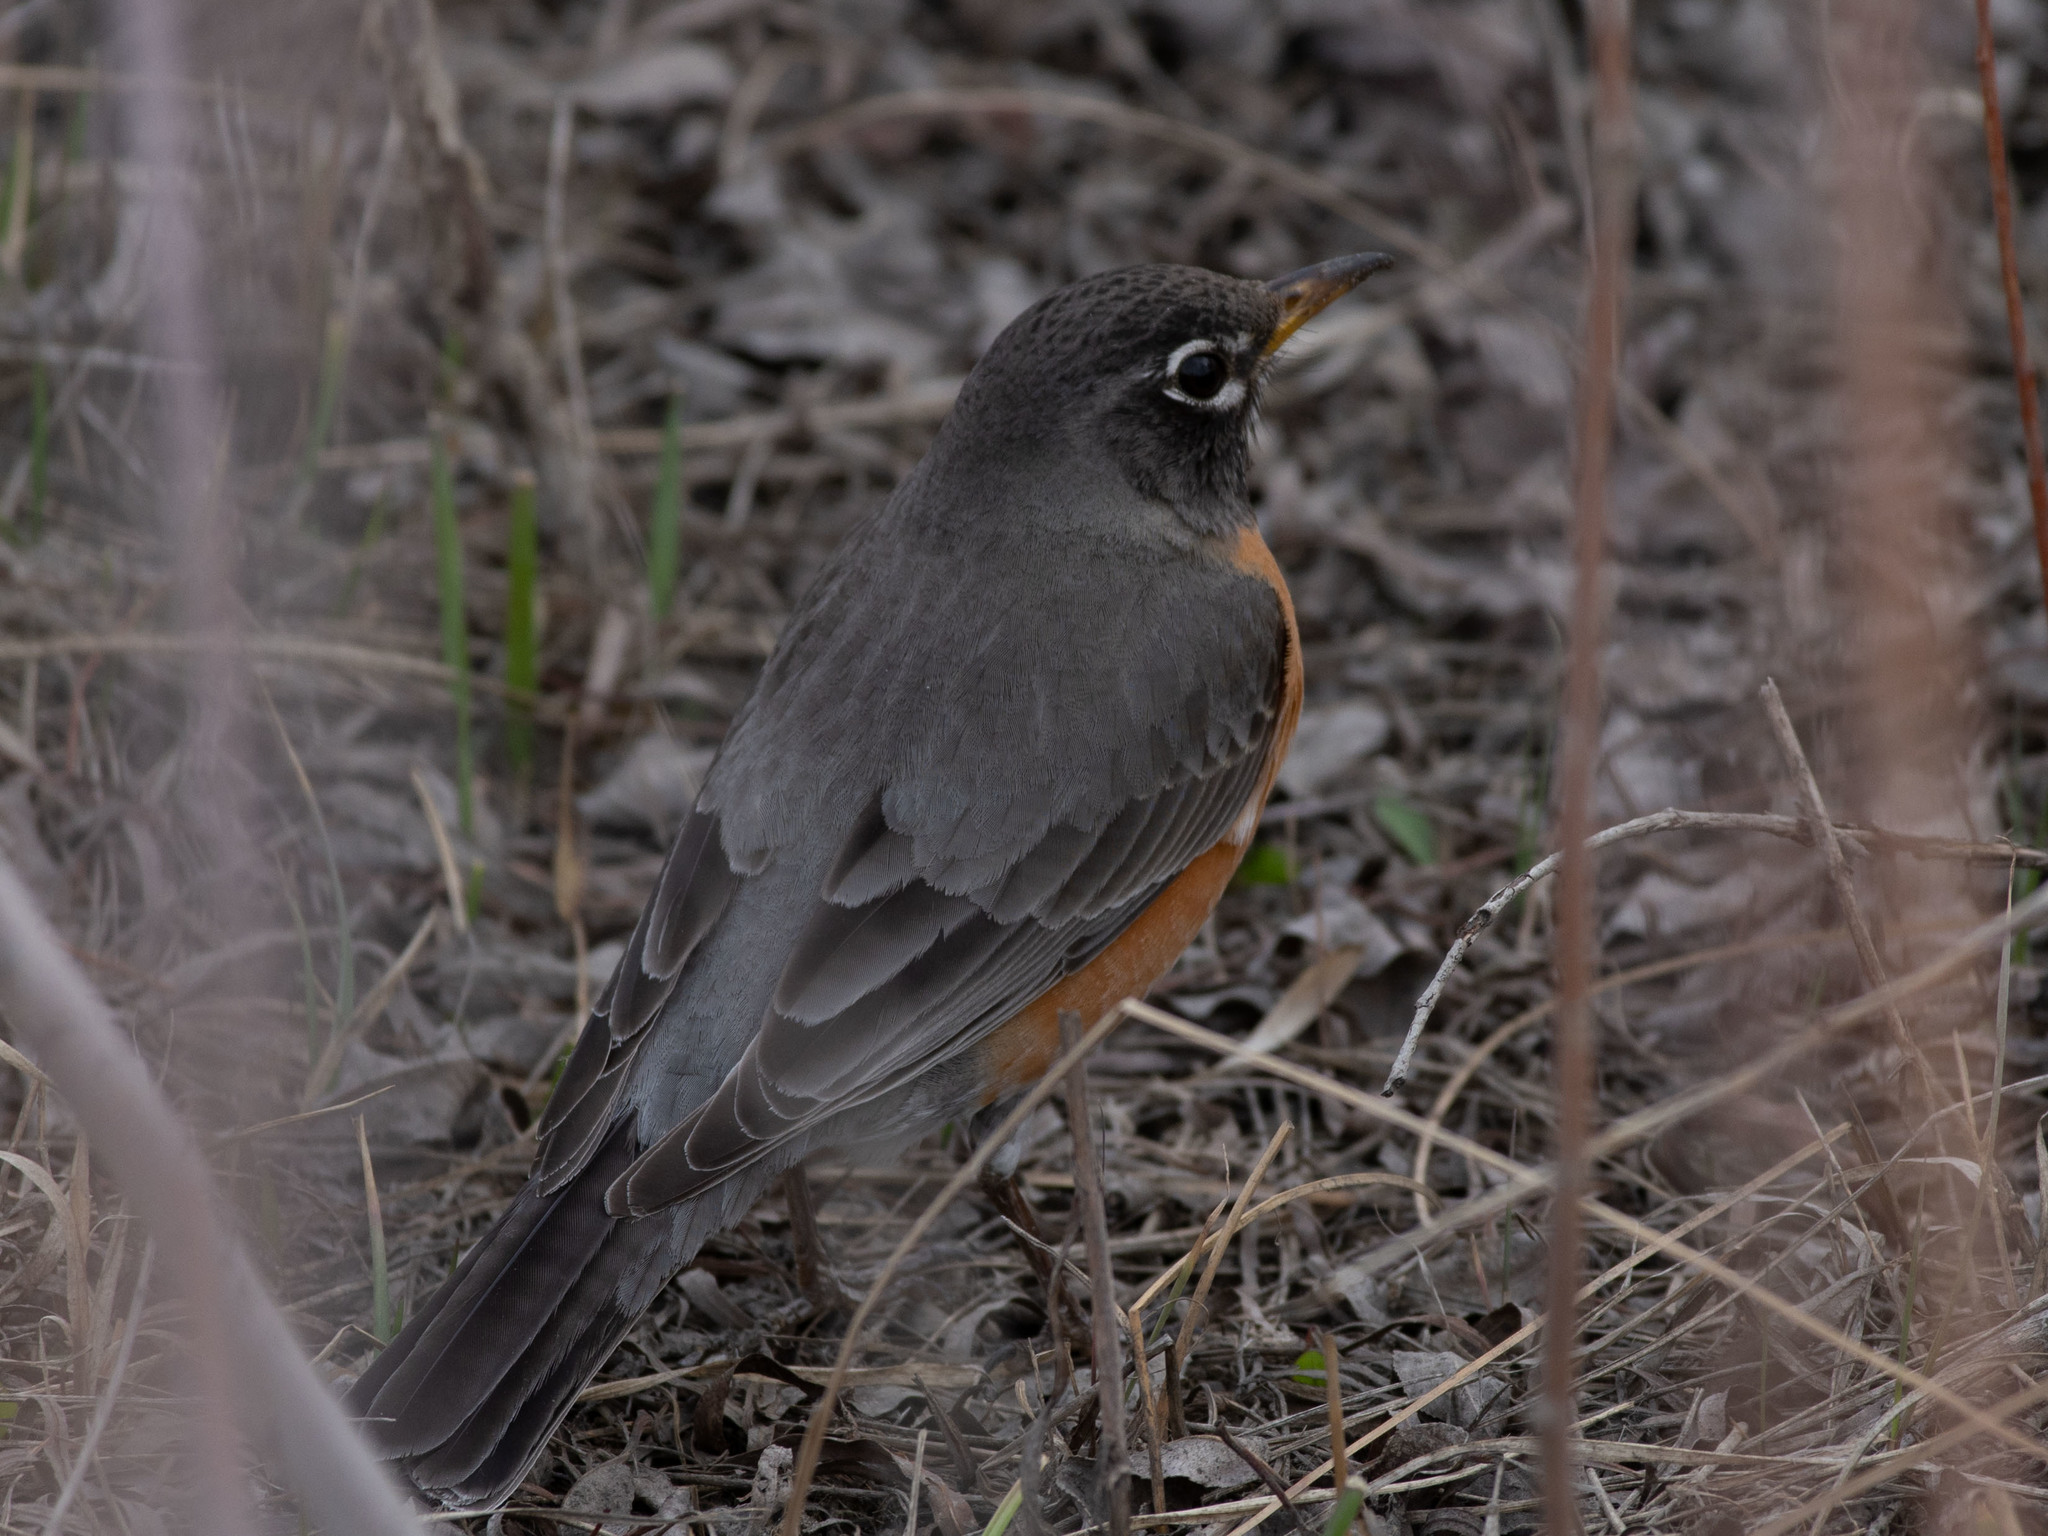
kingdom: Animalia
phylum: Chordata
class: Aves
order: Passeriformes
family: Turdidae
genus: Turdus
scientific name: Turdus migratorius
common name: American robin
